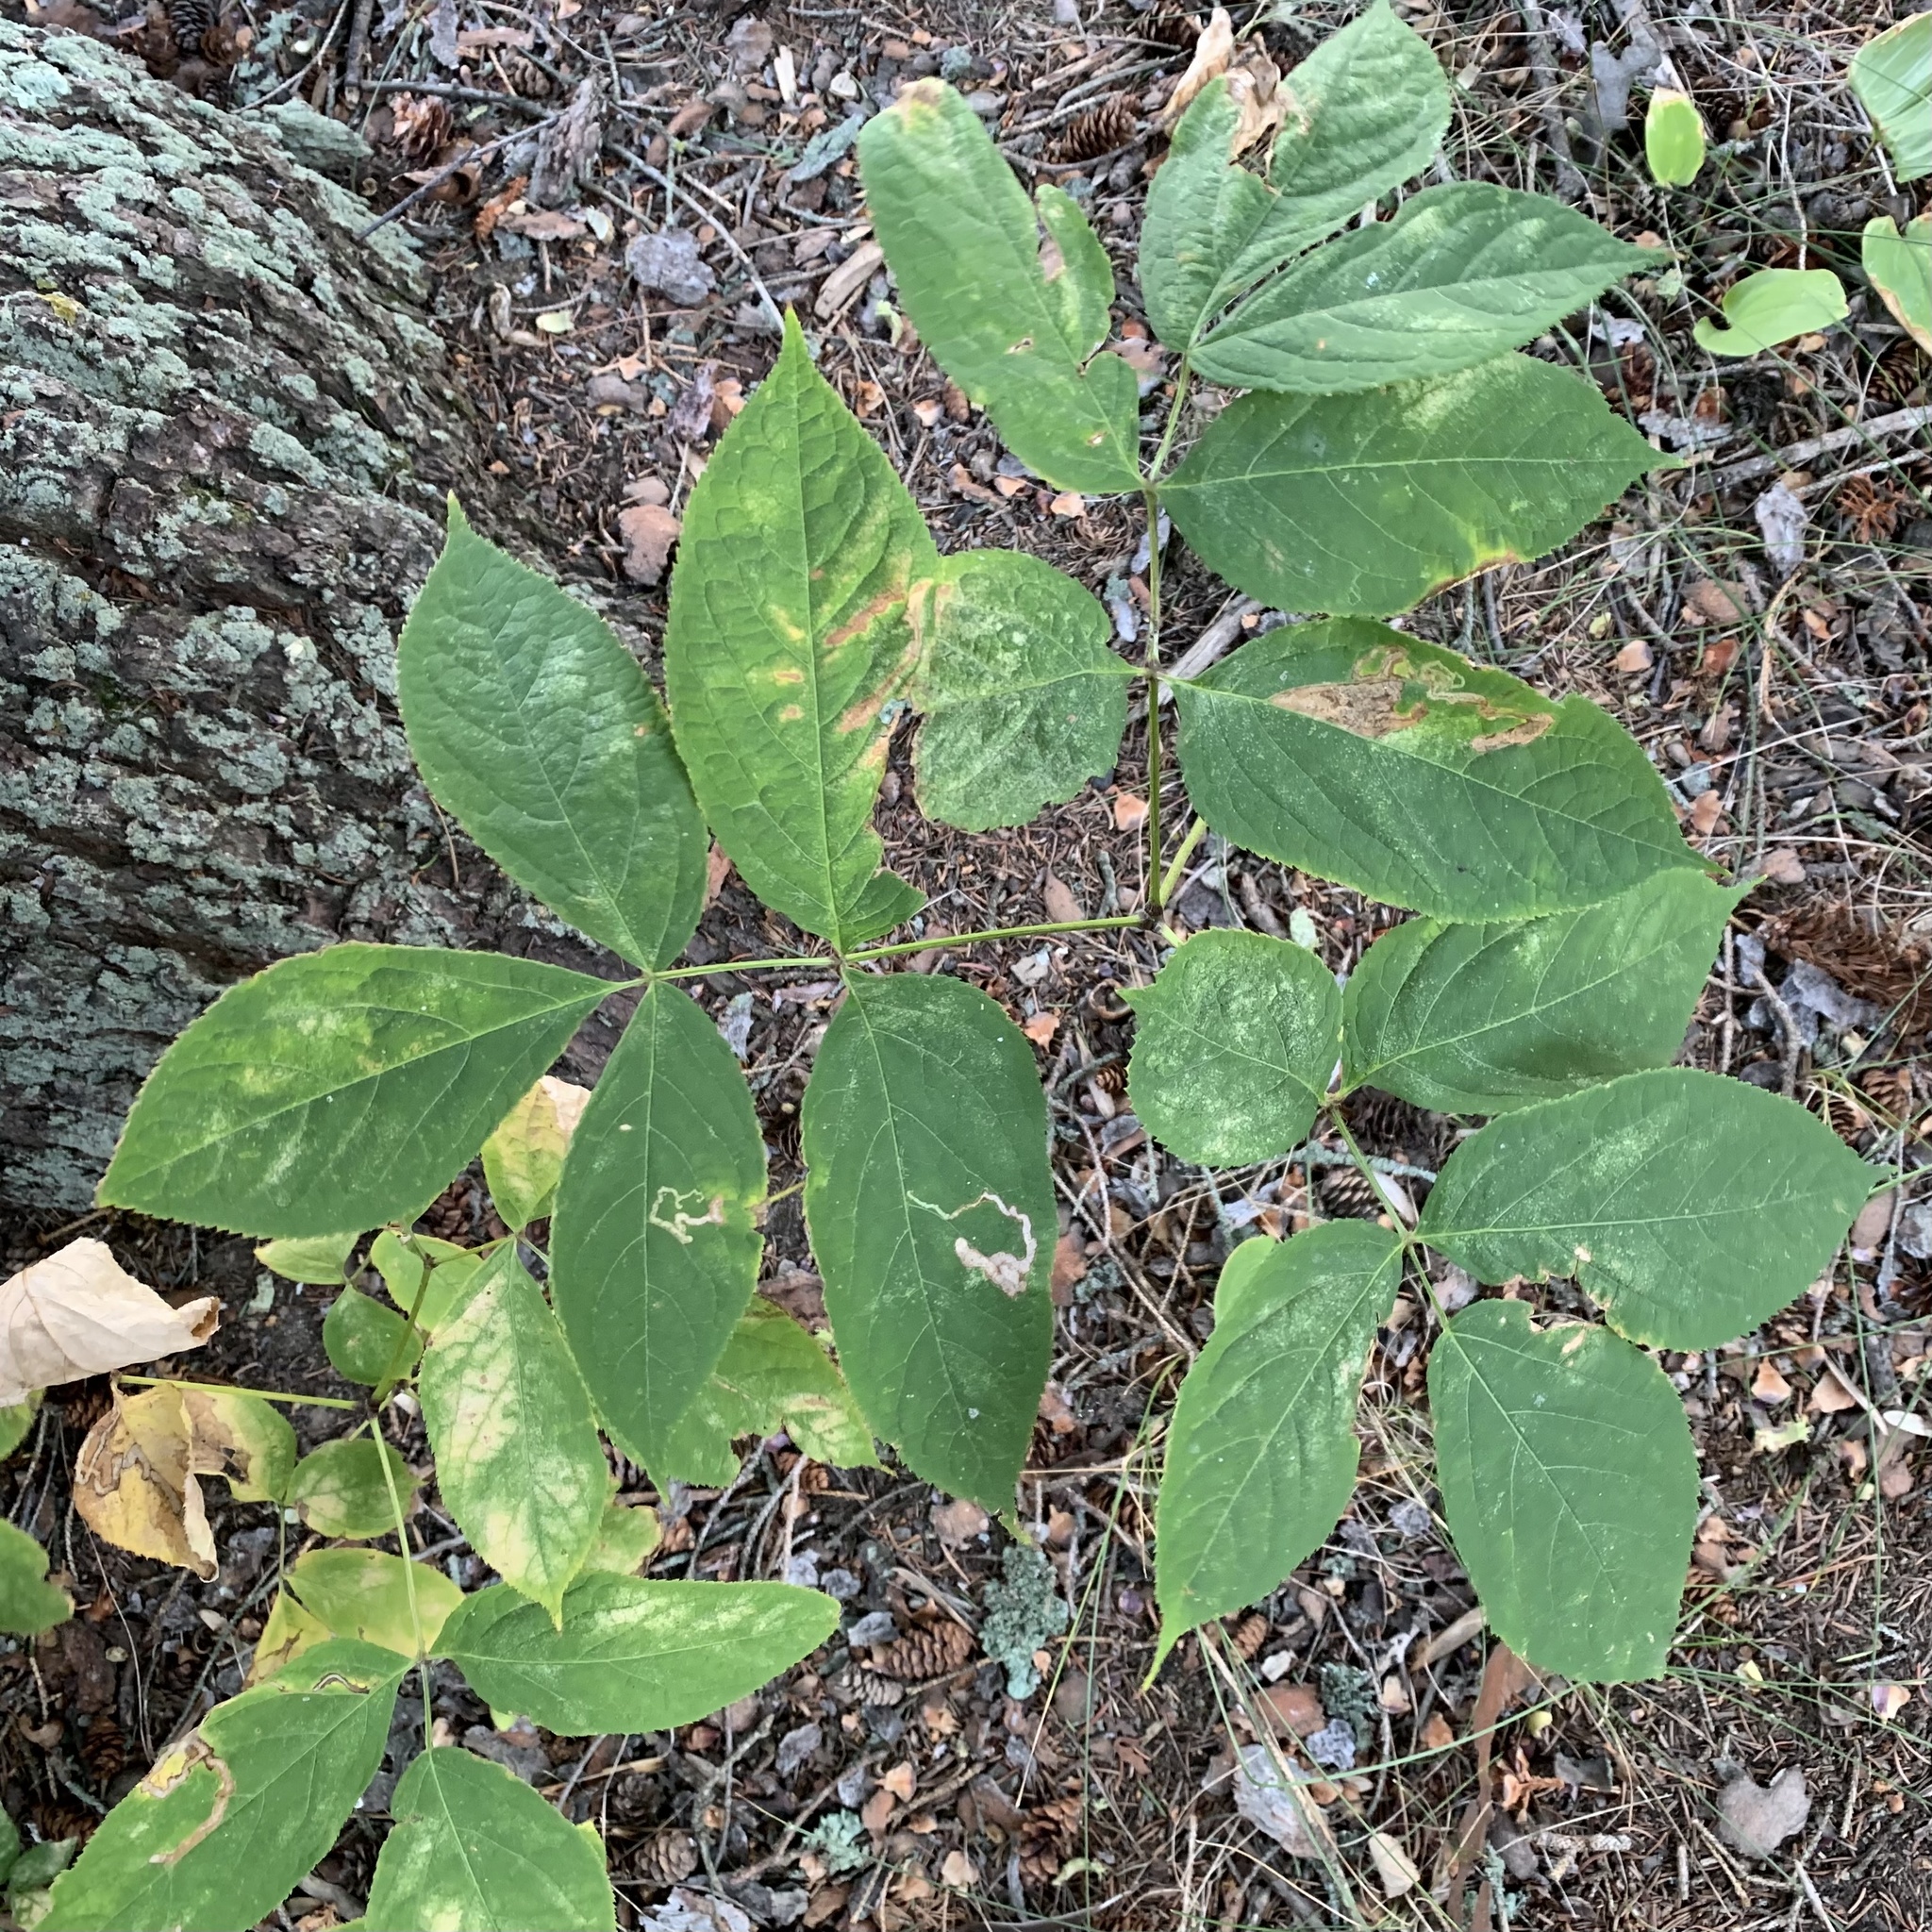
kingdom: Plantae
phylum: Tracheophyta
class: Magnoliopsida
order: Apiales
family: Araliaceae
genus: Aralia
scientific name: Aralia nudicaulis
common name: Wild sarsaparilla
